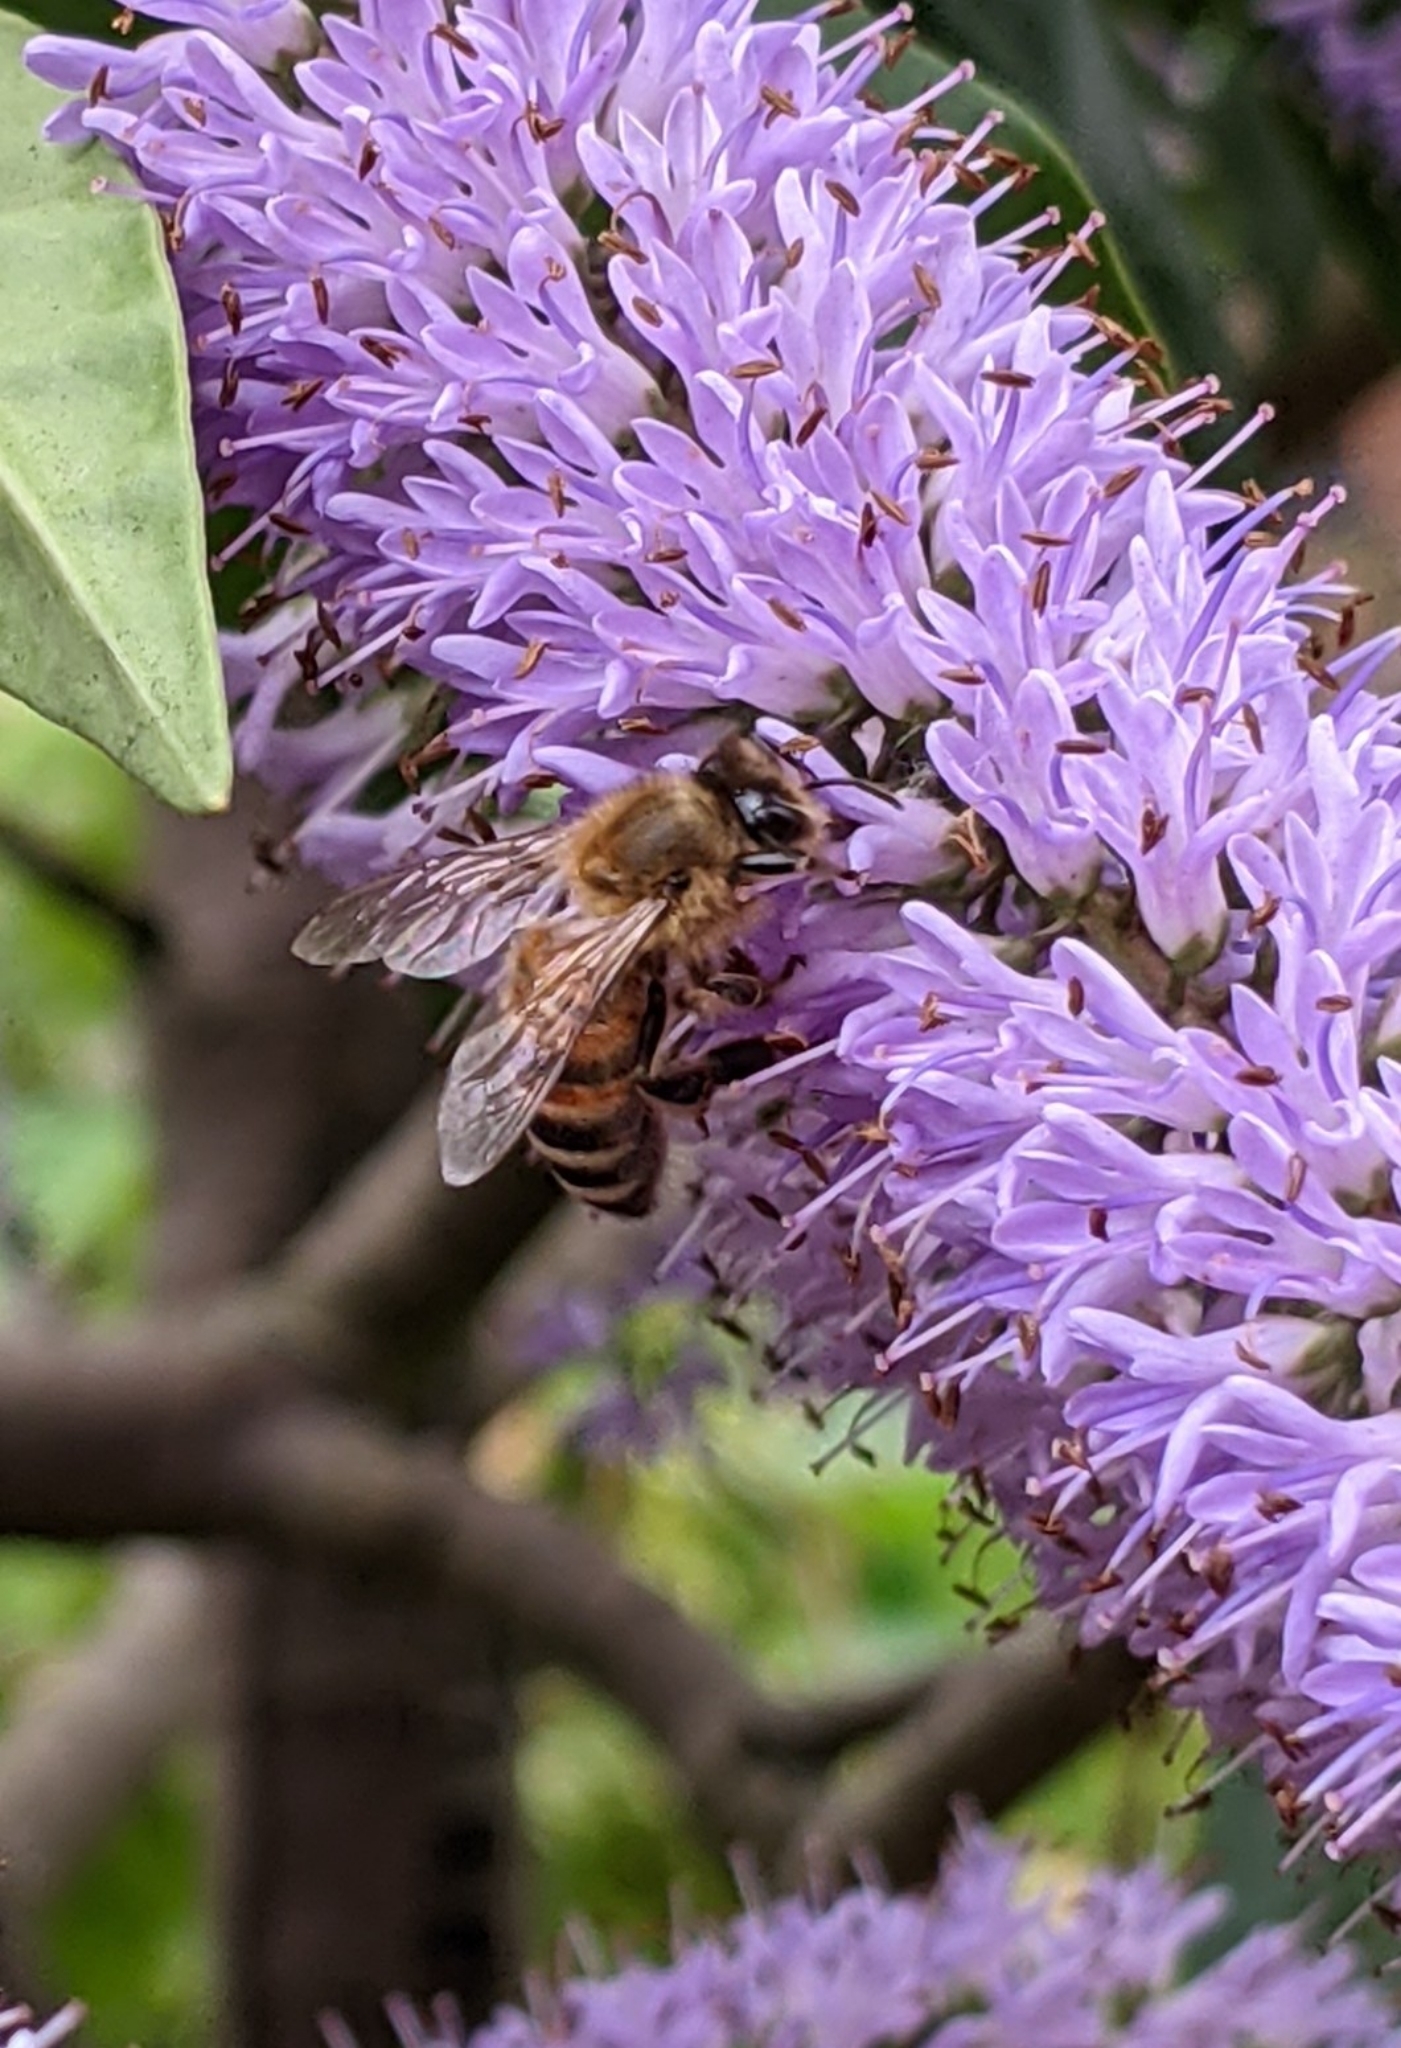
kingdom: Animalia
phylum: Arthropoda
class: Insecta
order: Hymenoptera
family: Apidae
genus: Apis
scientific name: Apis mellifera
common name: Honey bee
